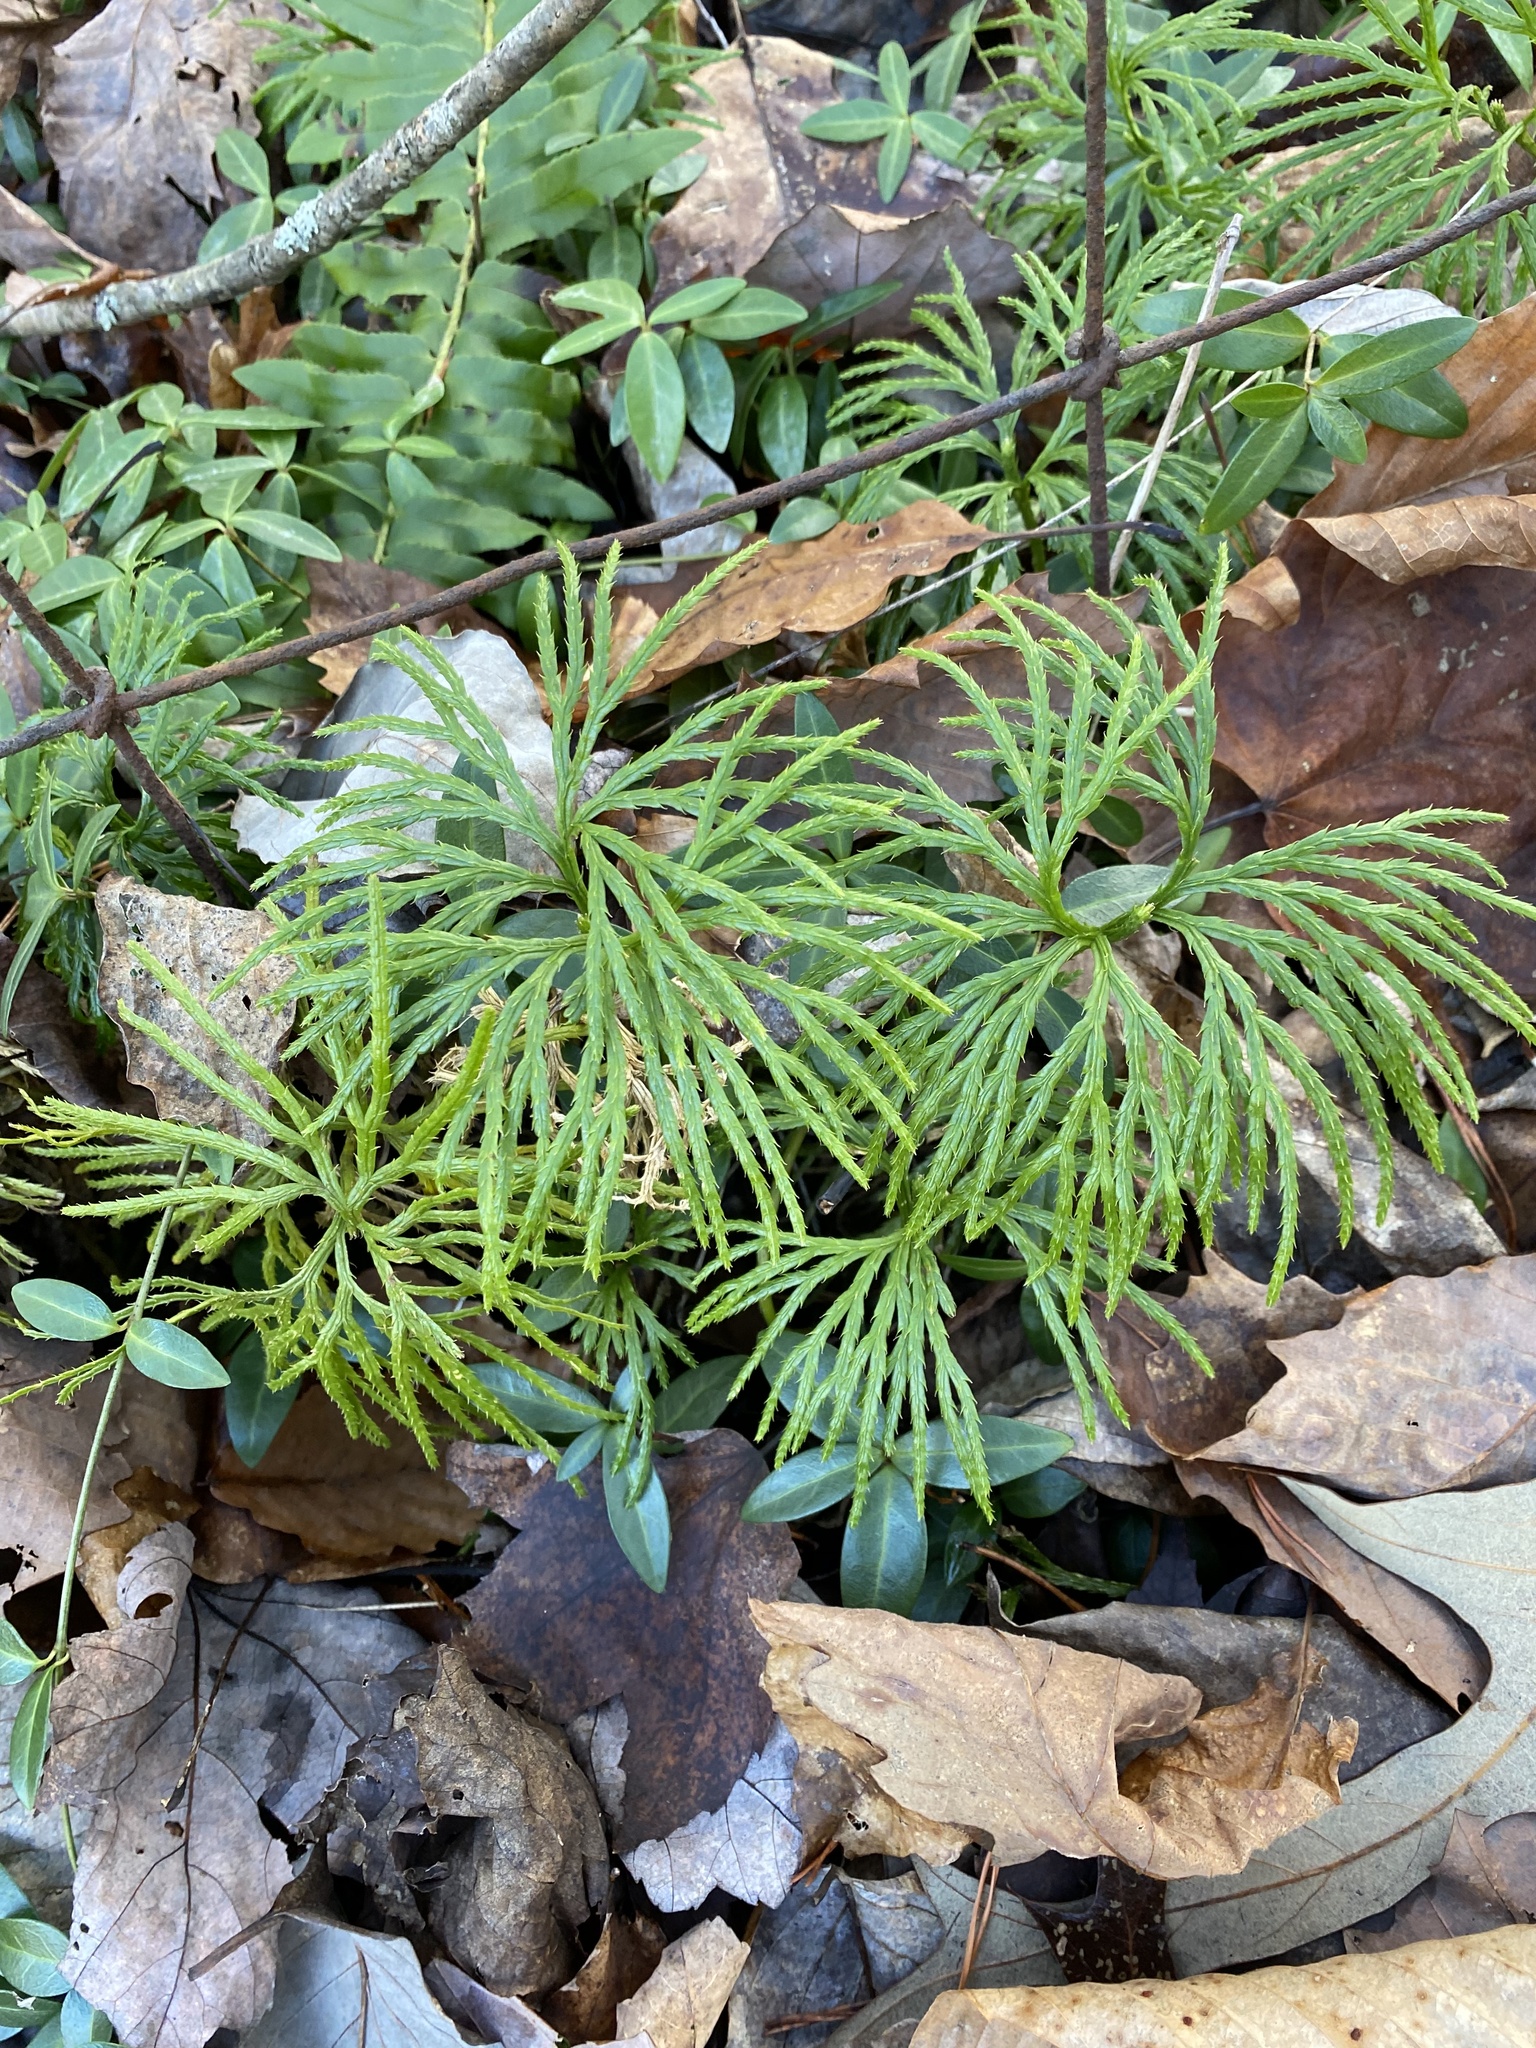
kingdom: Plantae
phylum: Tracheophyta
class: Lycopodiopsida
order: Lycopodiales
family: Lycopodiaceae
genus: Diphasiastrum
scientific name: Diphasiastrum digitatum
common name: Southern running-pine
